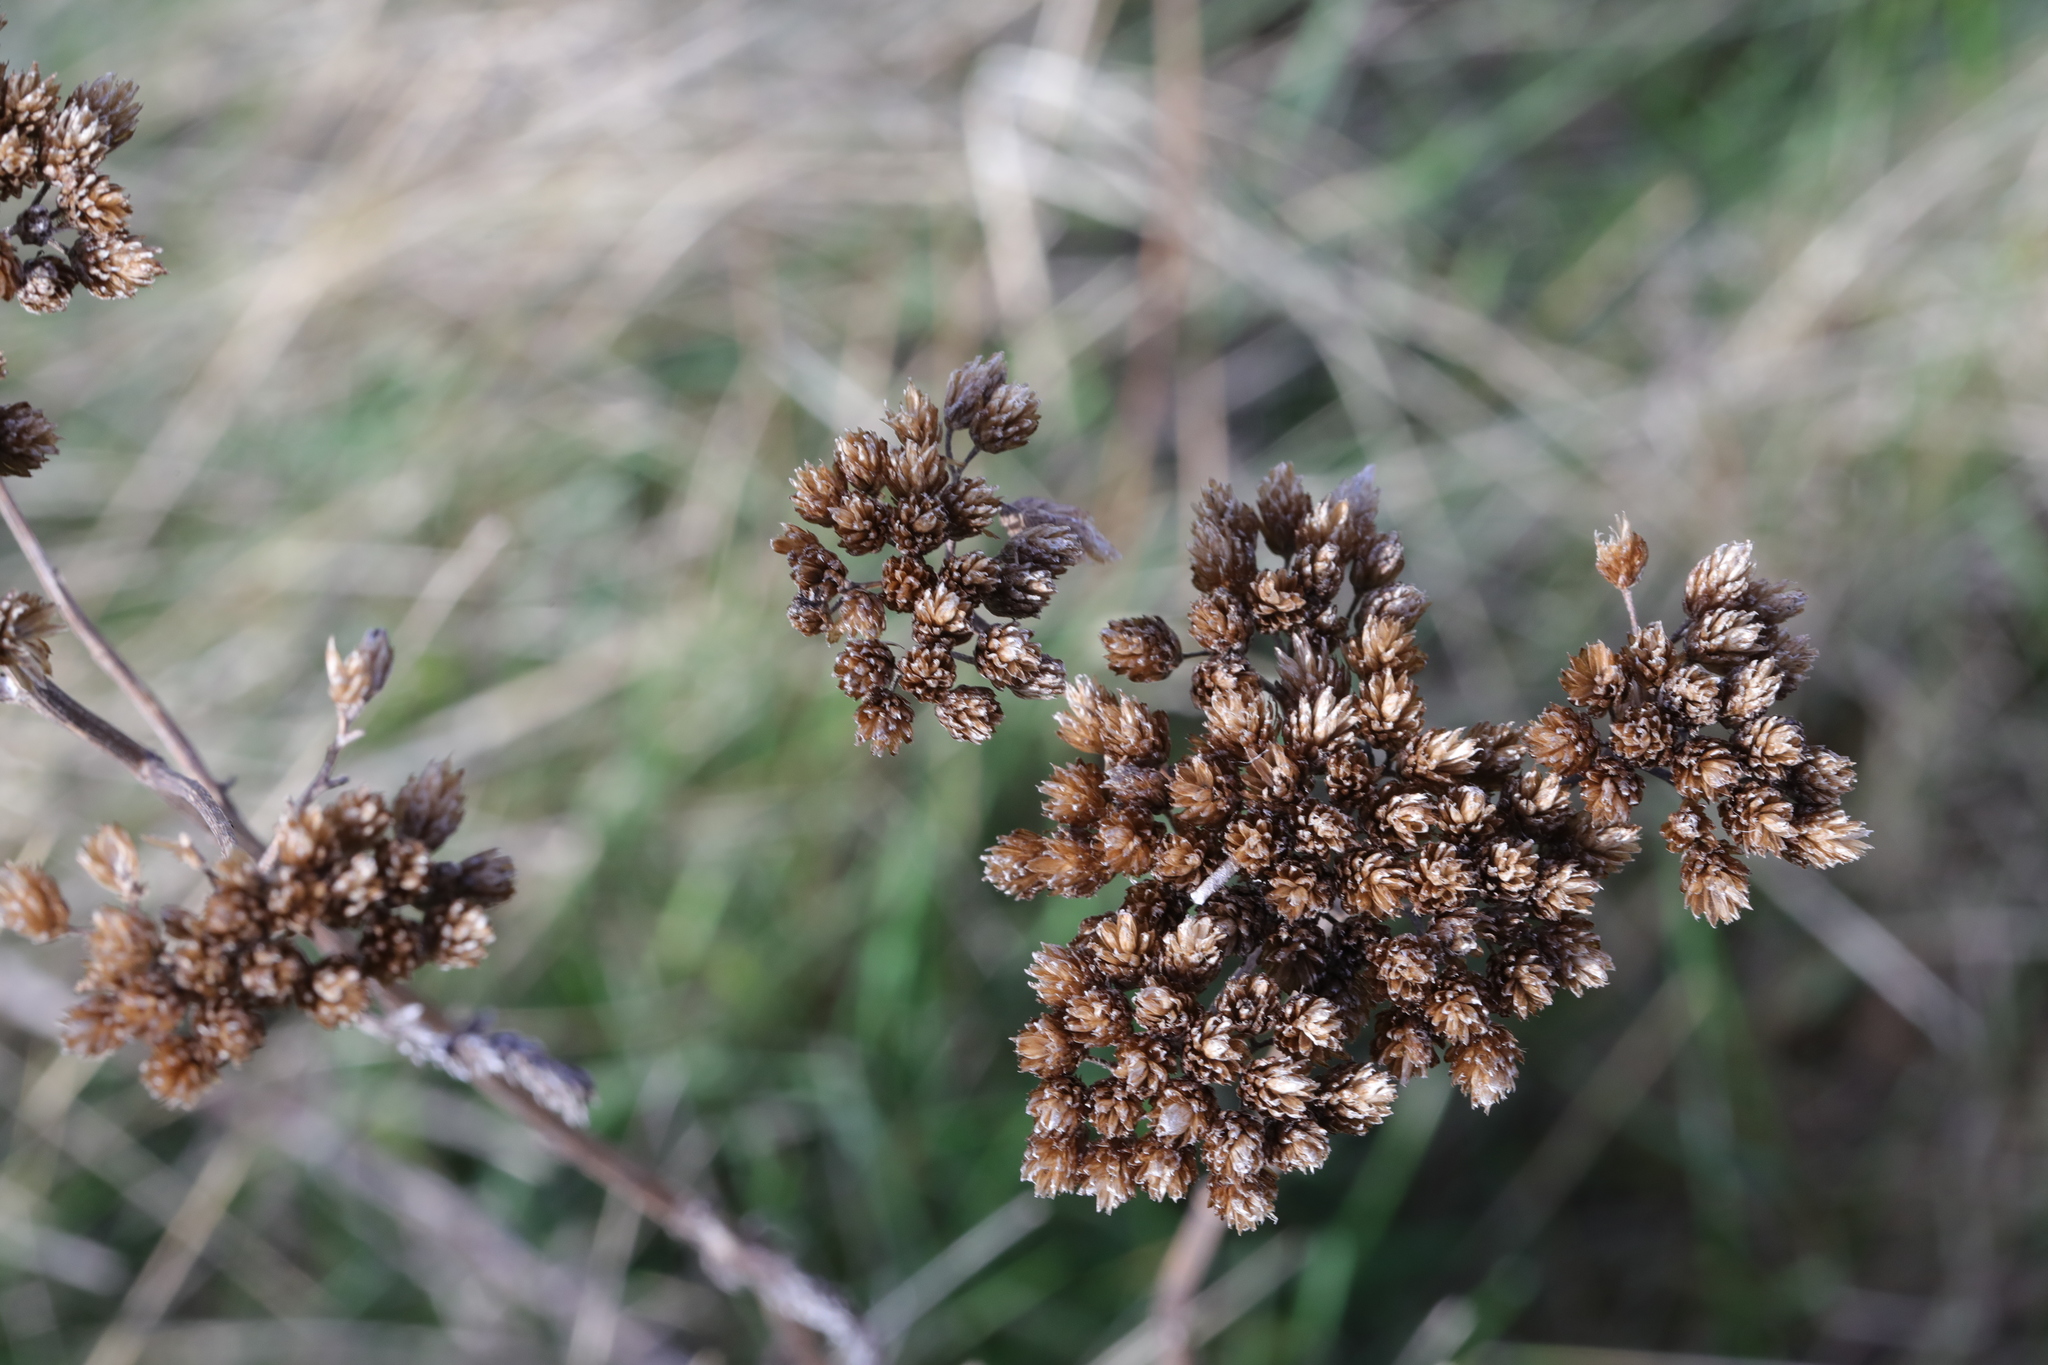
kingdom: Plantae
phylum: Tracheophyta
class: Magnoliopsida
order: Asterales
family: Asteraceae
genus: Achillea
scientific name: Achillea millefolium
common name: Yarrow
